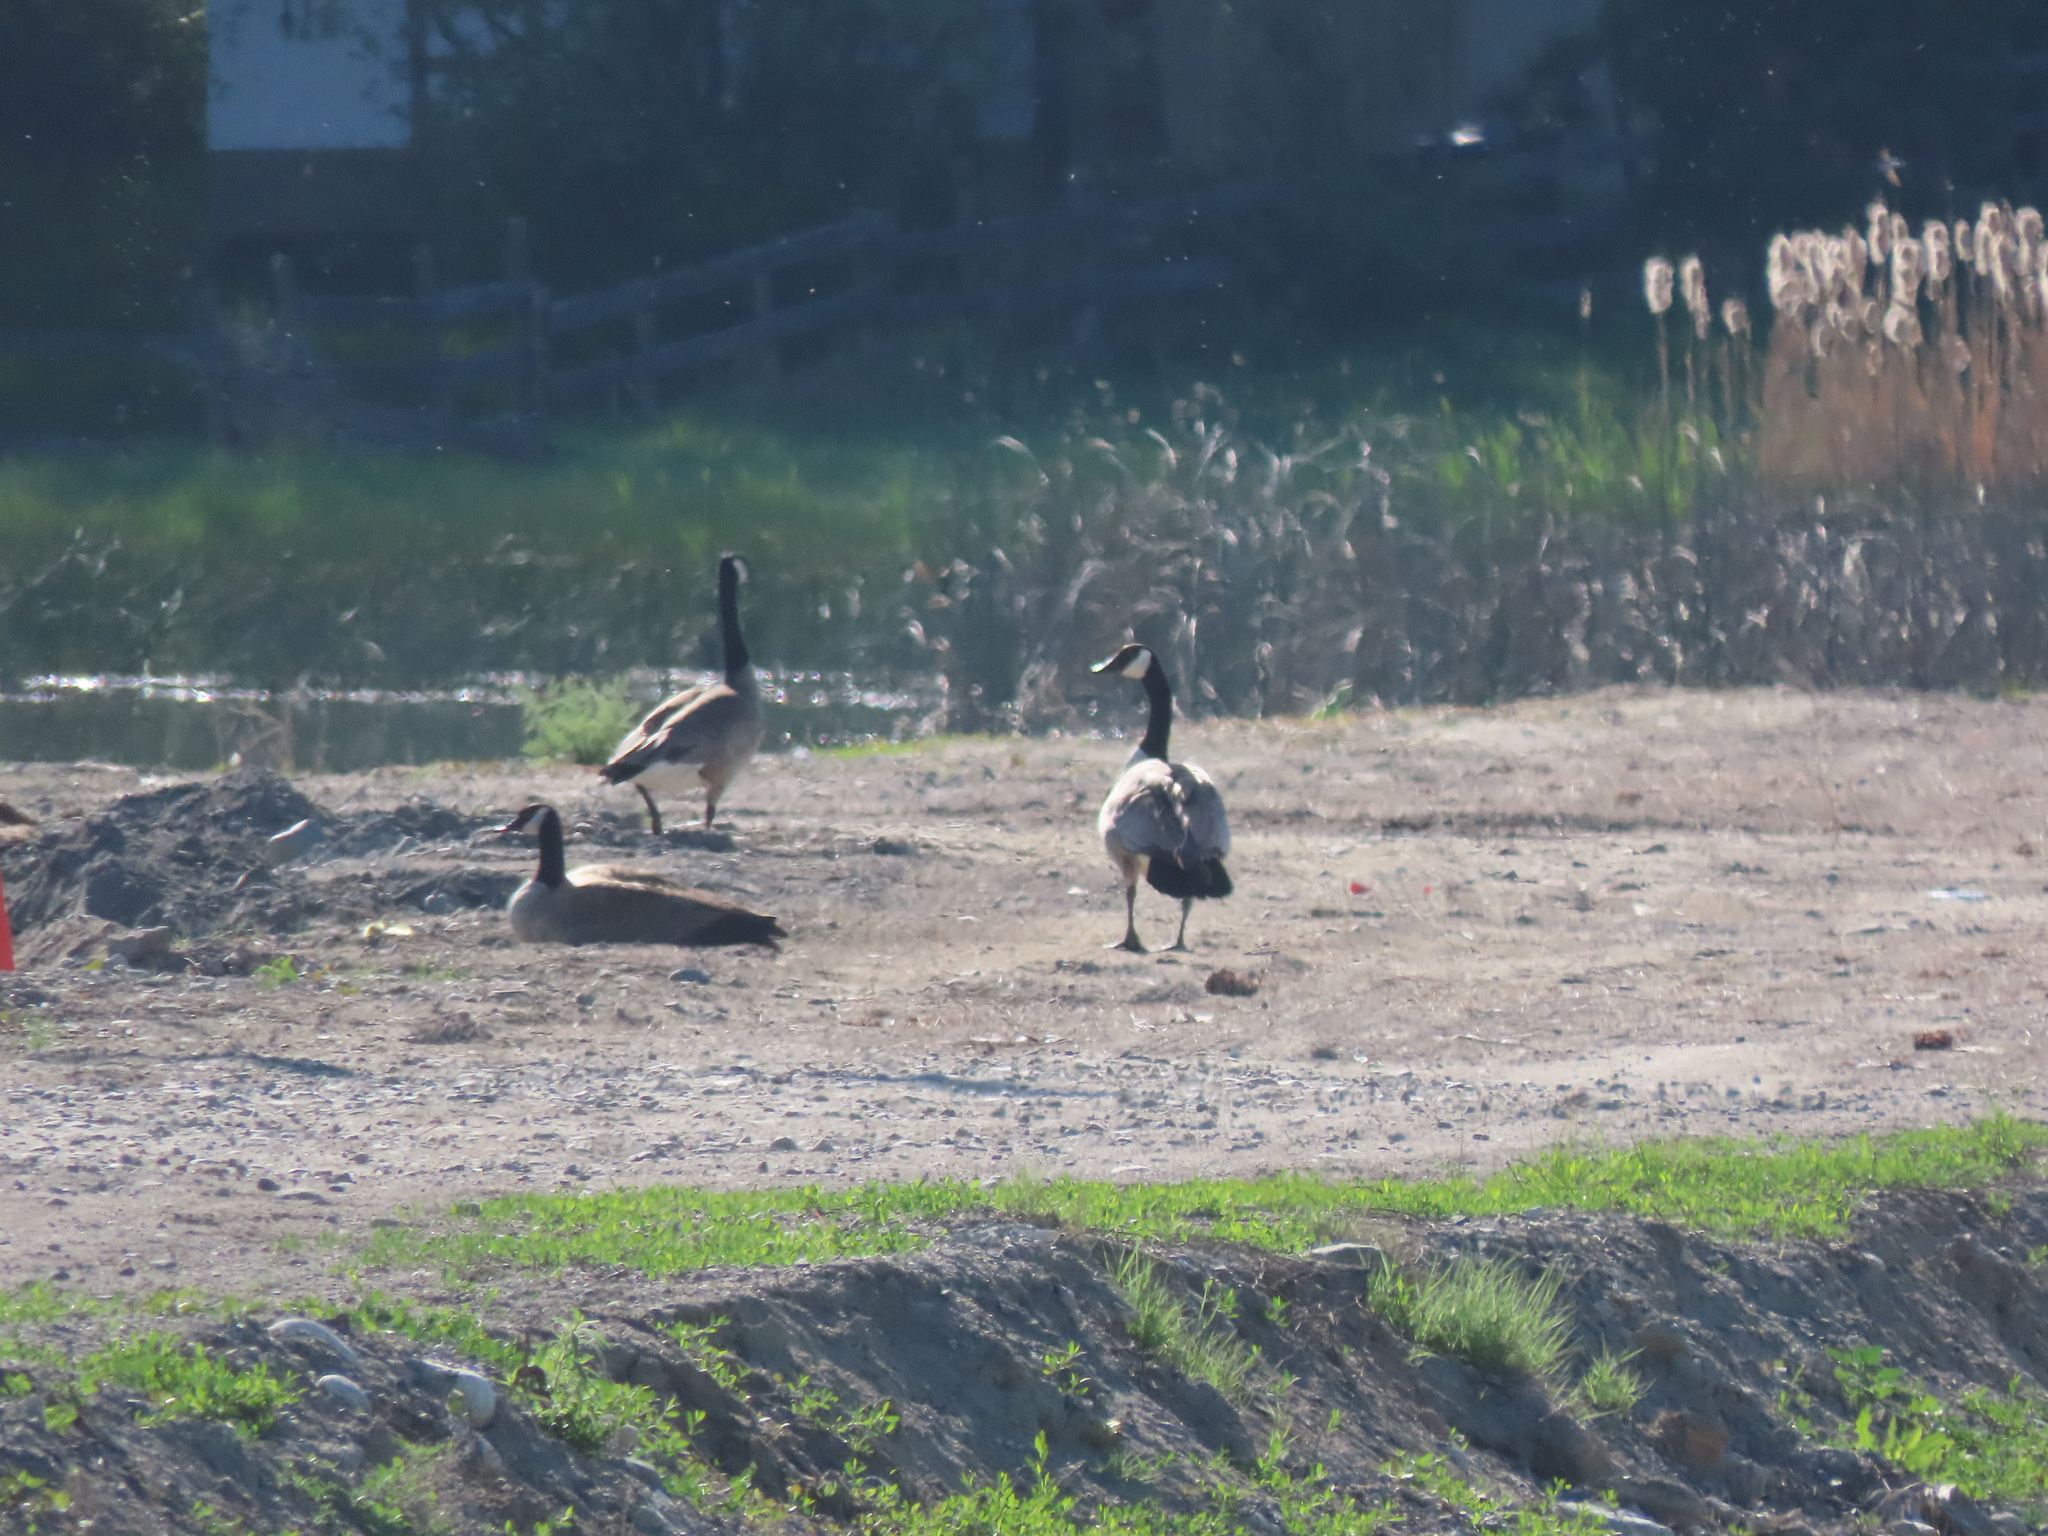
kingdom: Animalia
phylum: Chordata
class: Aves
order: Anseriformes
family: Anatidae
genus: Branta
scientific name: Branta canadensis
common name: Canada goose
